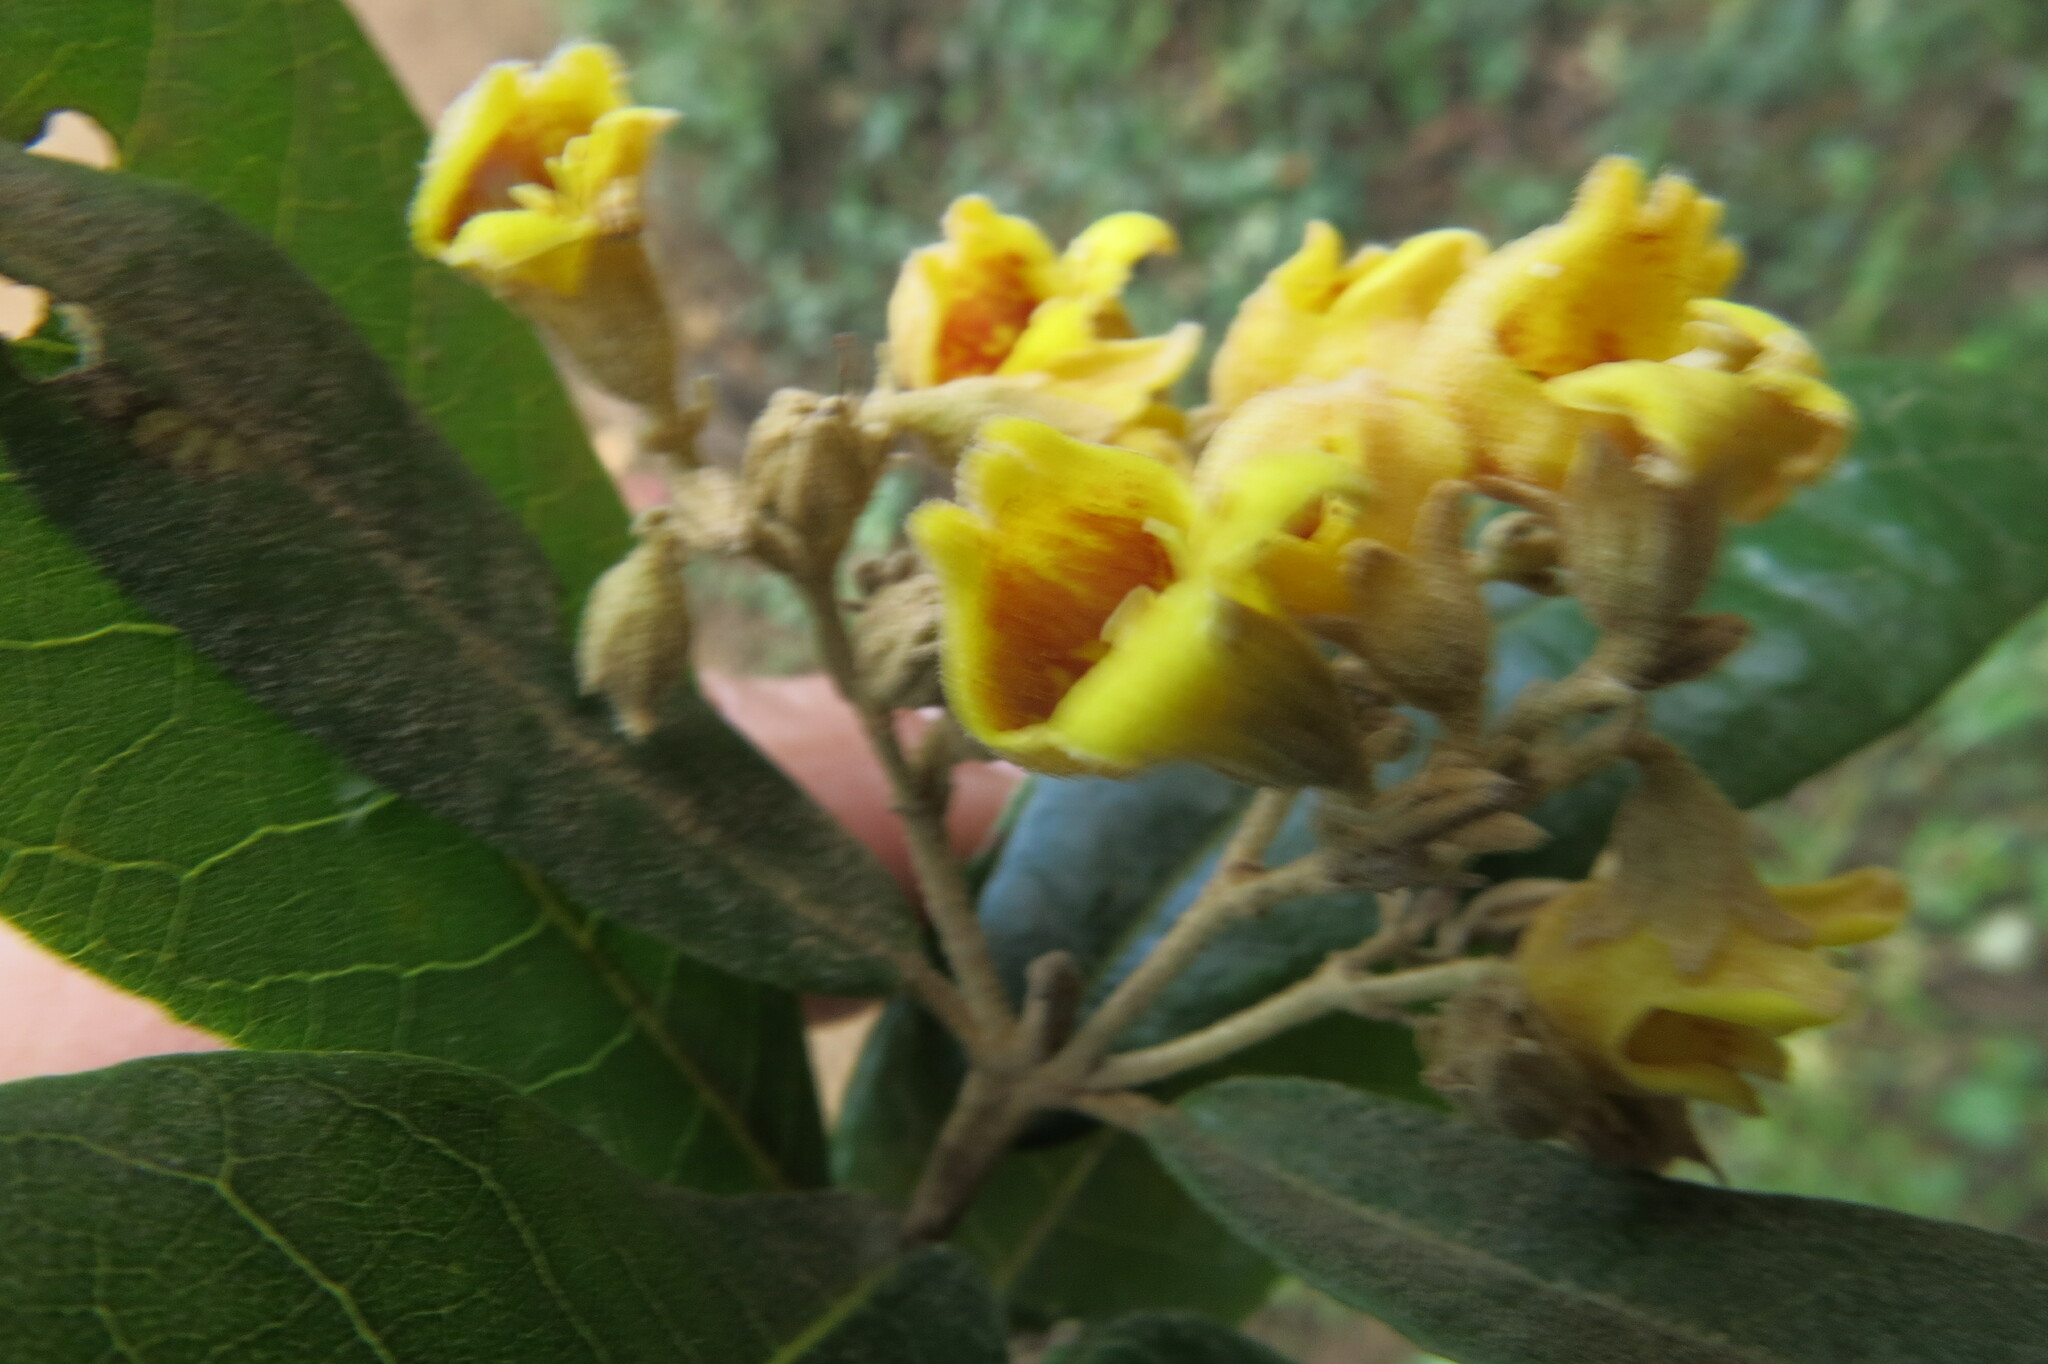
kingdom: Plantae
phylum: Tracheophyta
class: Magnoliopsida
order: Lamiales
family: Stilbaceae
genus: Anastrabe
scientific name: Anastrabe integerrima
